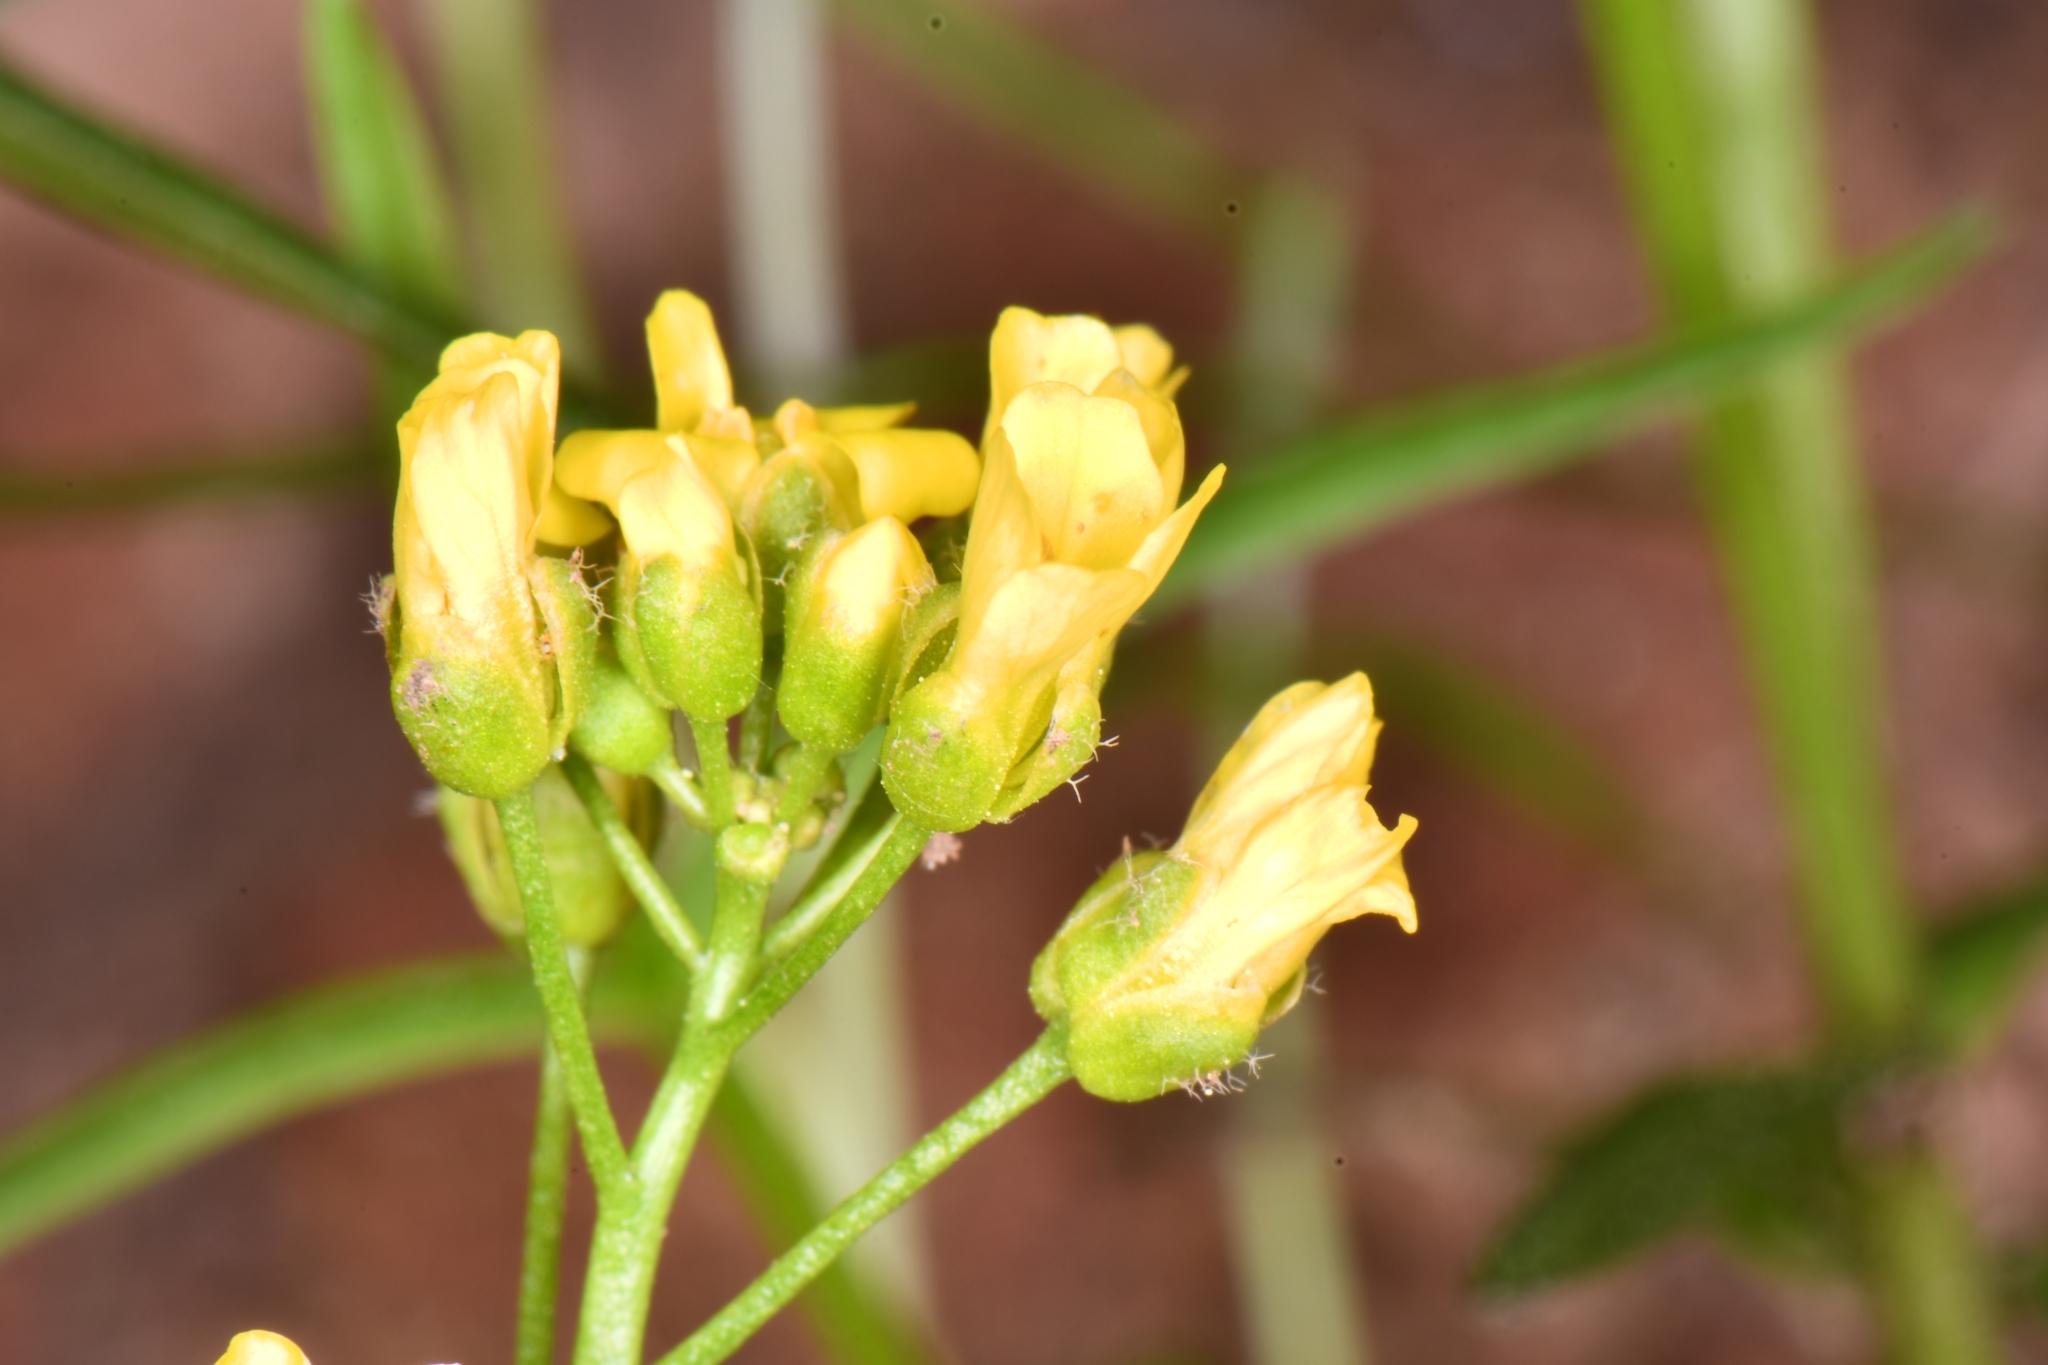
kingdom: Plantae
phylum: Tracheophyta
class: Magnoliopsida
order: Brassicales
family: Brassicaceae
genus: Draba
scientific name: Draba zionensis
